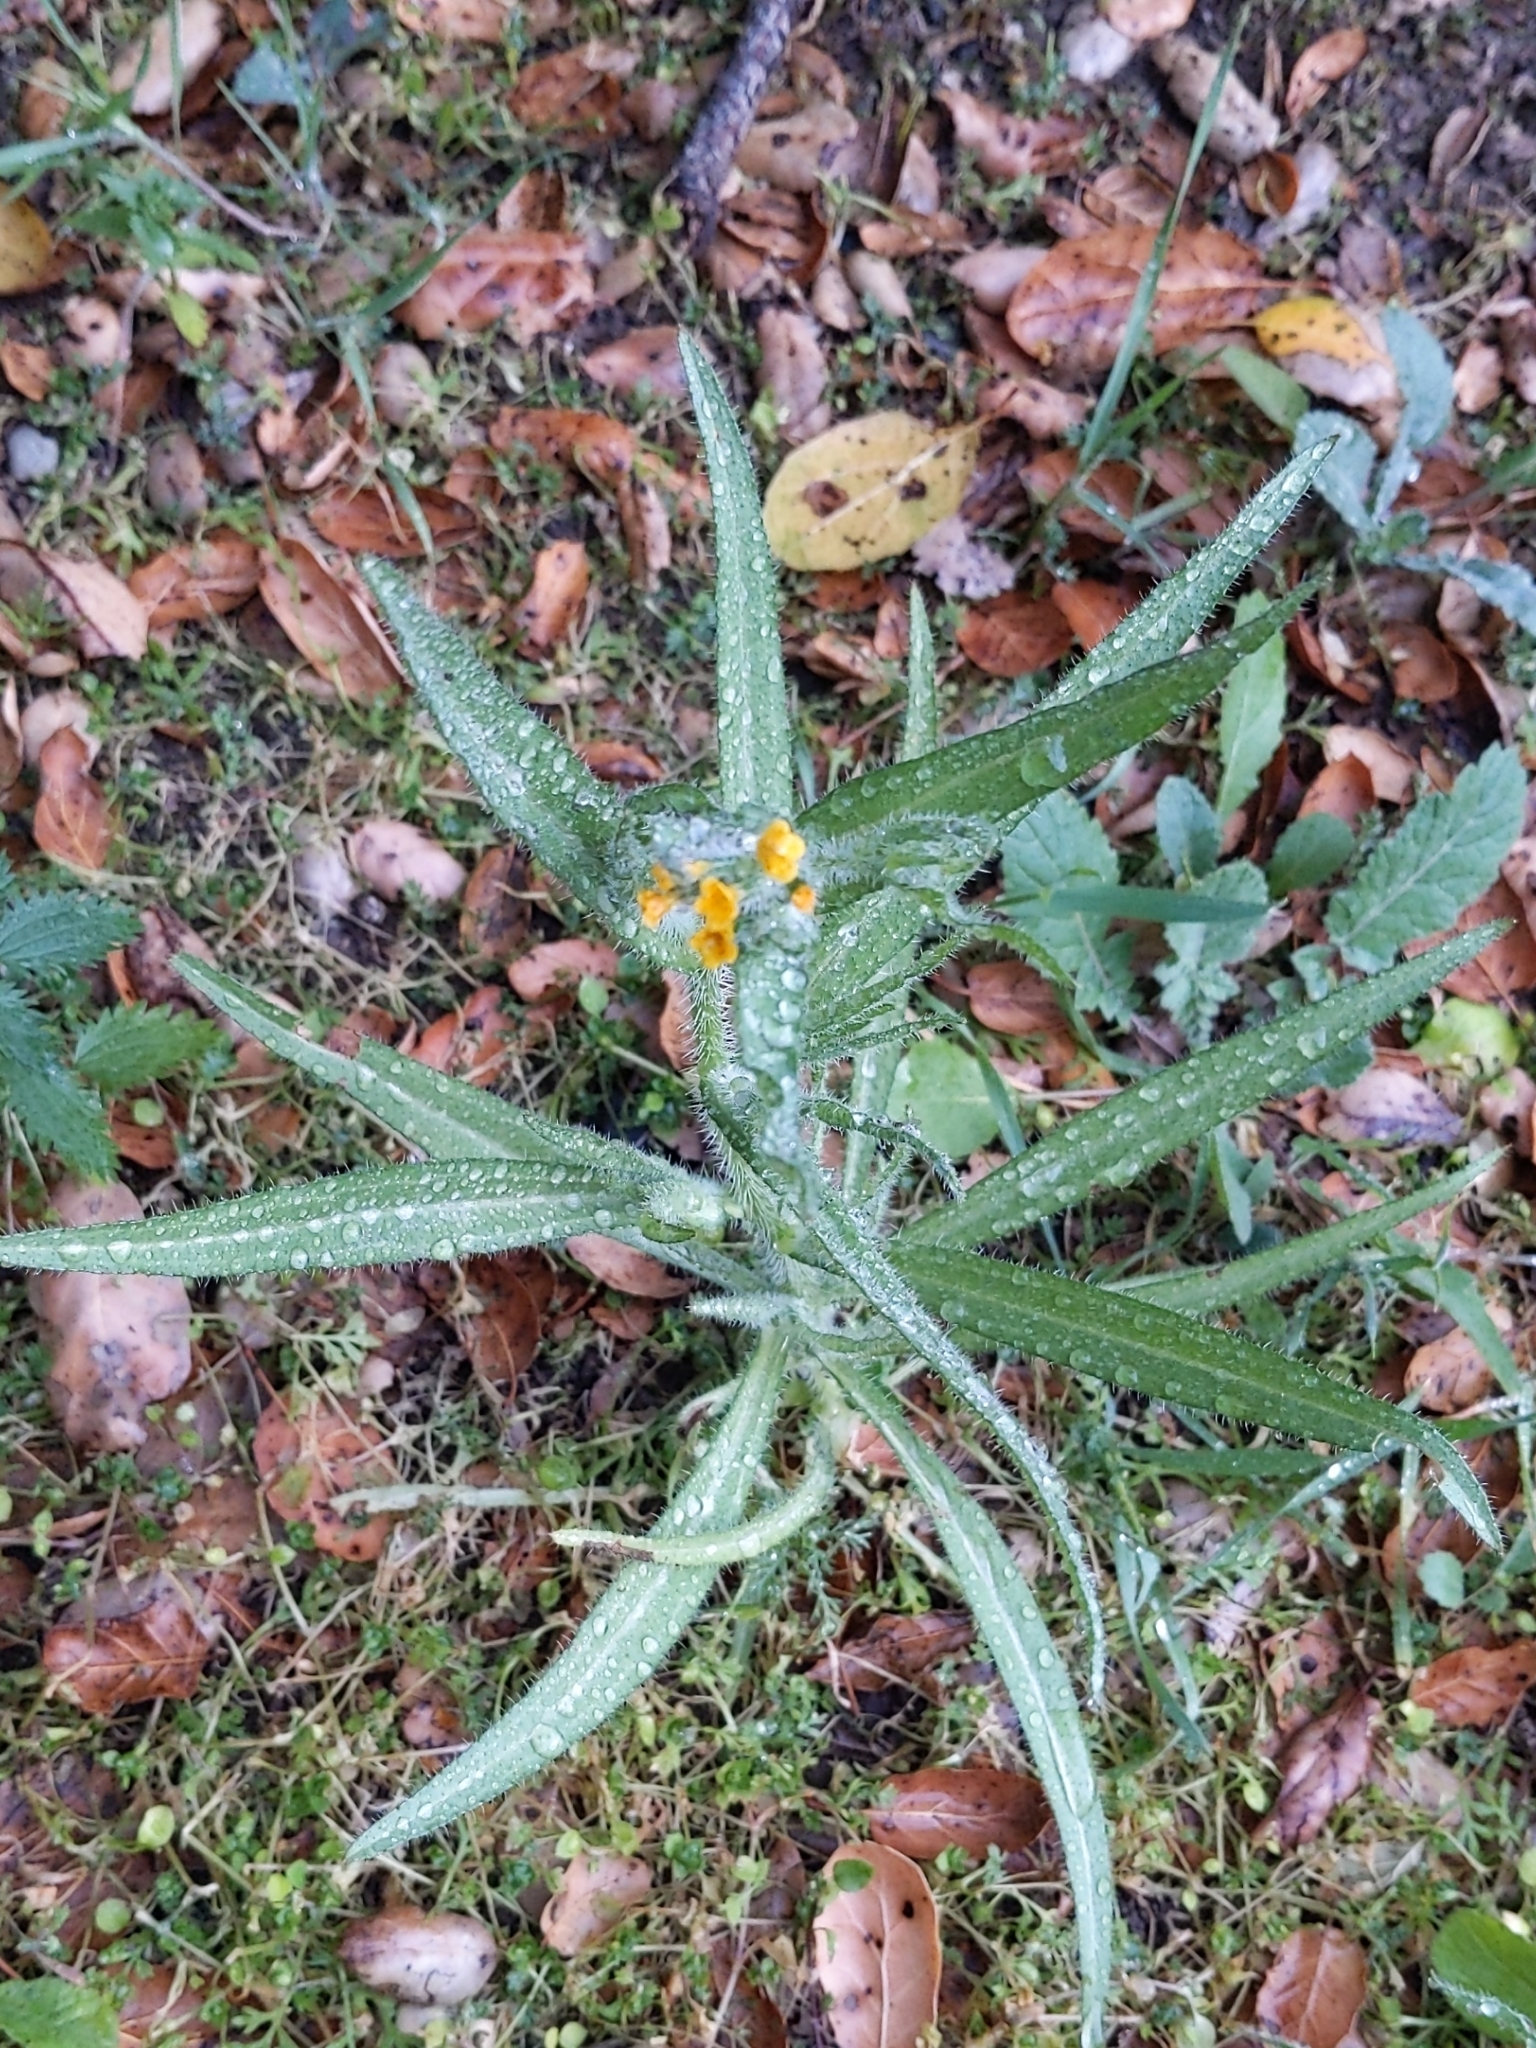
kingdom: Plantae
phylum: Tracheophyta
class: Magnoliopsida
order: Boraginales
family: Boraginaceae
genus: Amsinckia
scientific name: Amsinckia menziesii
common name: Menzies' fiddleneck
